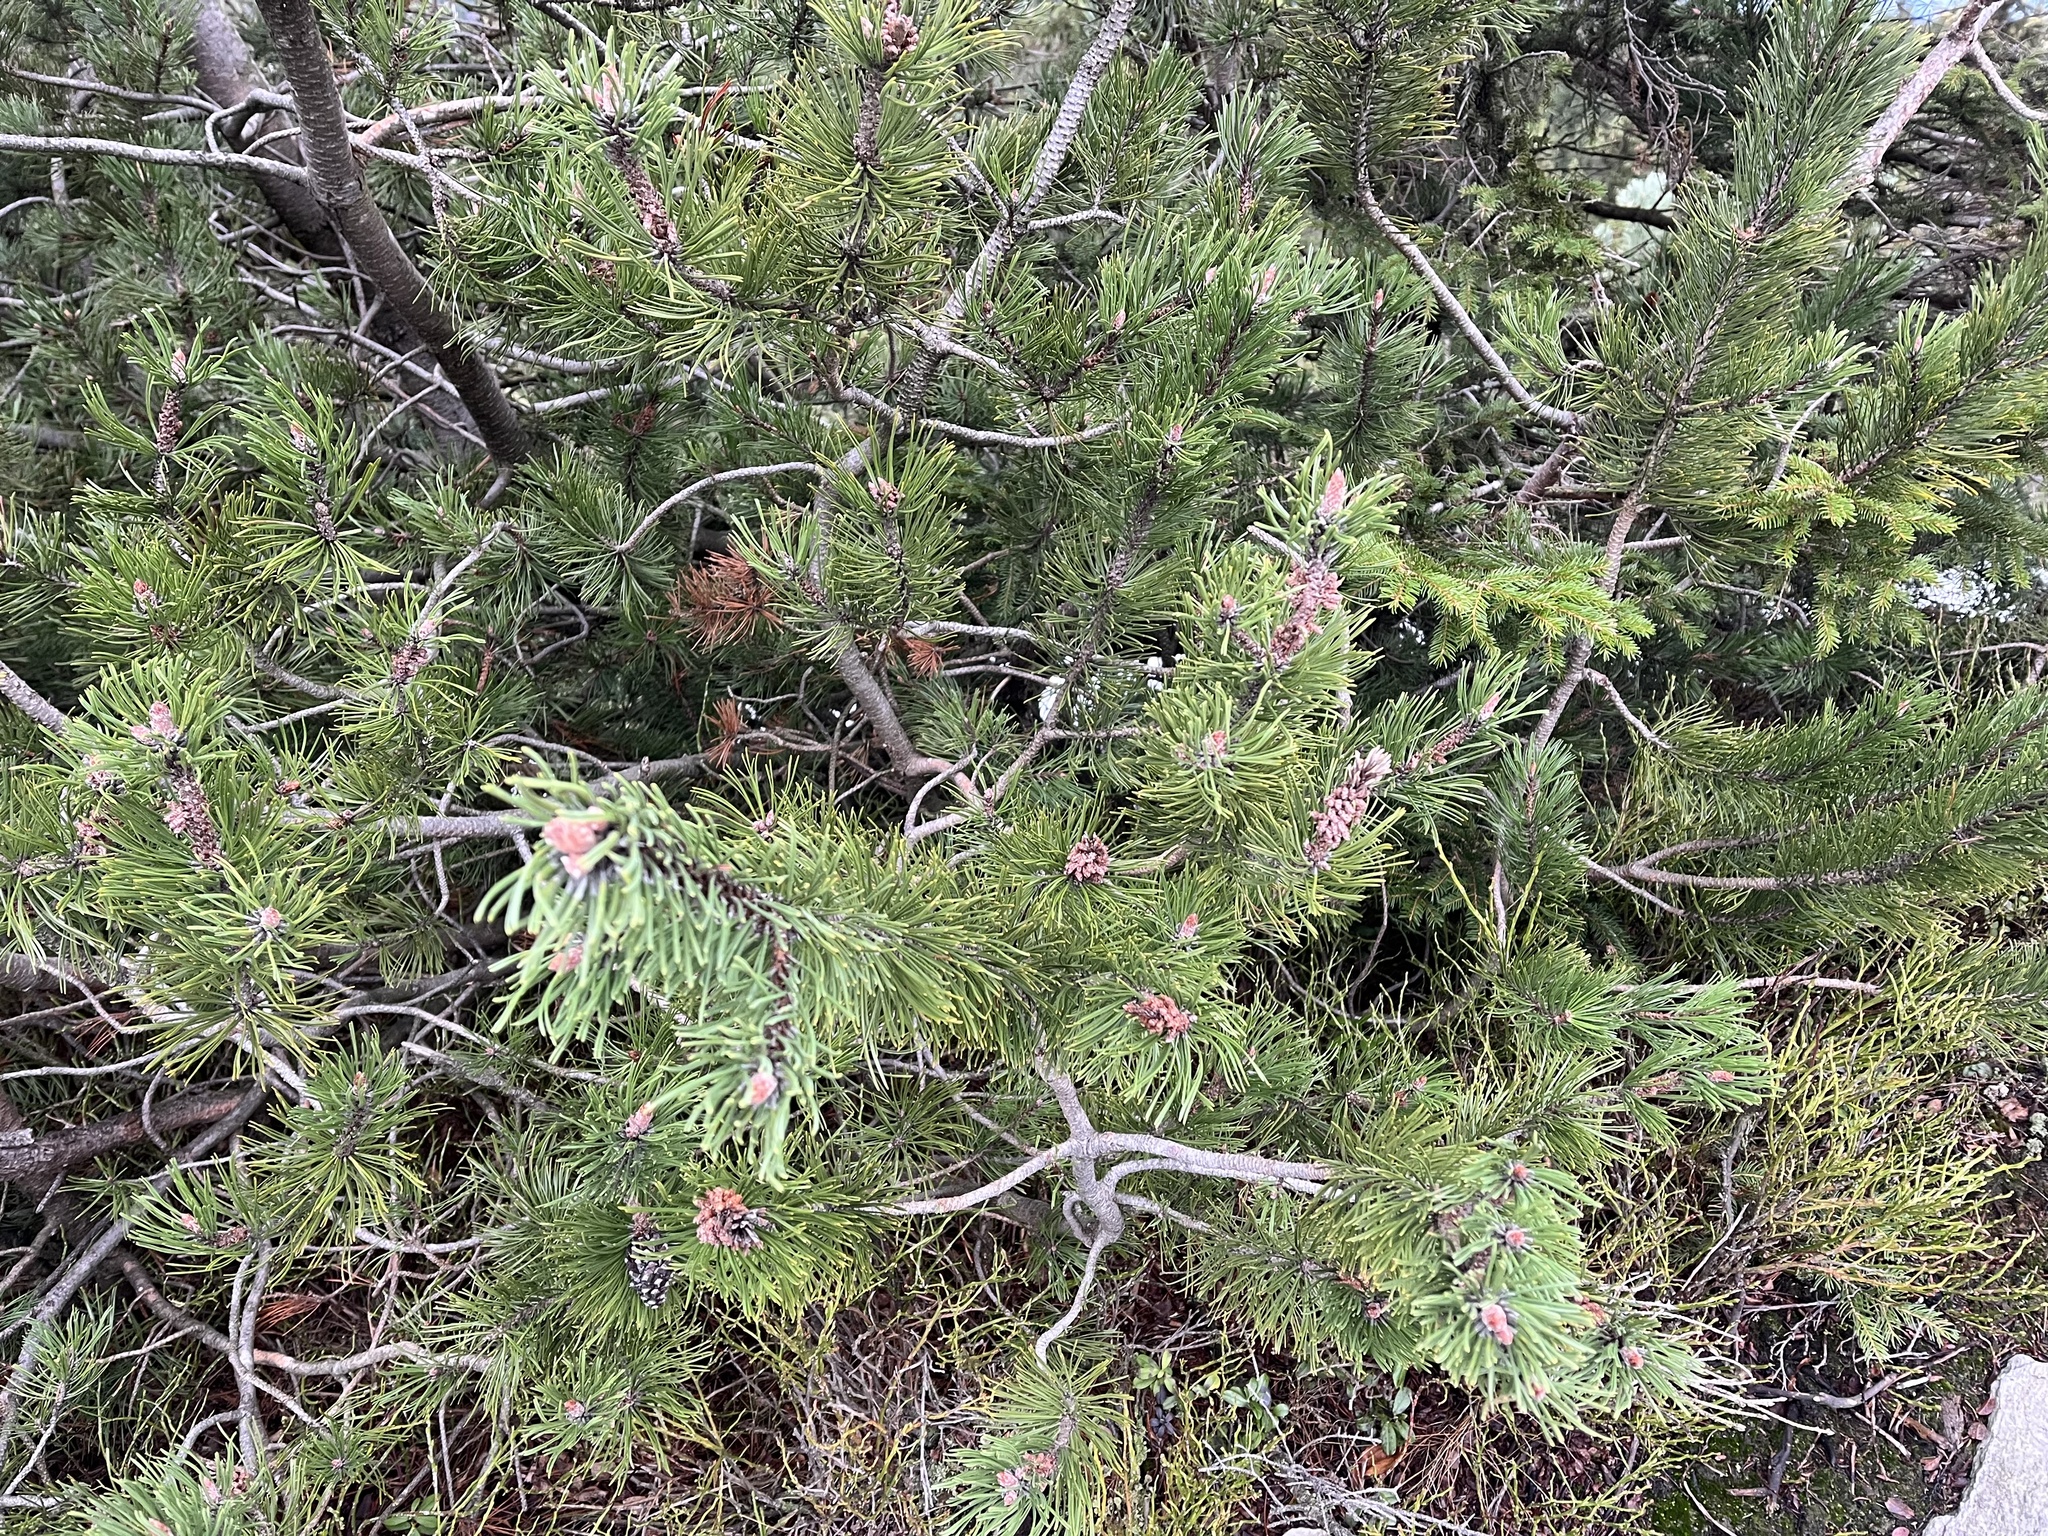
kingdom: Plantae
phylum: Tracheophyta
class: Pinopsida
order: Pinales
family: Pinaceae
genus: Pinus
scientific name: Pinus mugo
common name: Mugo pine
